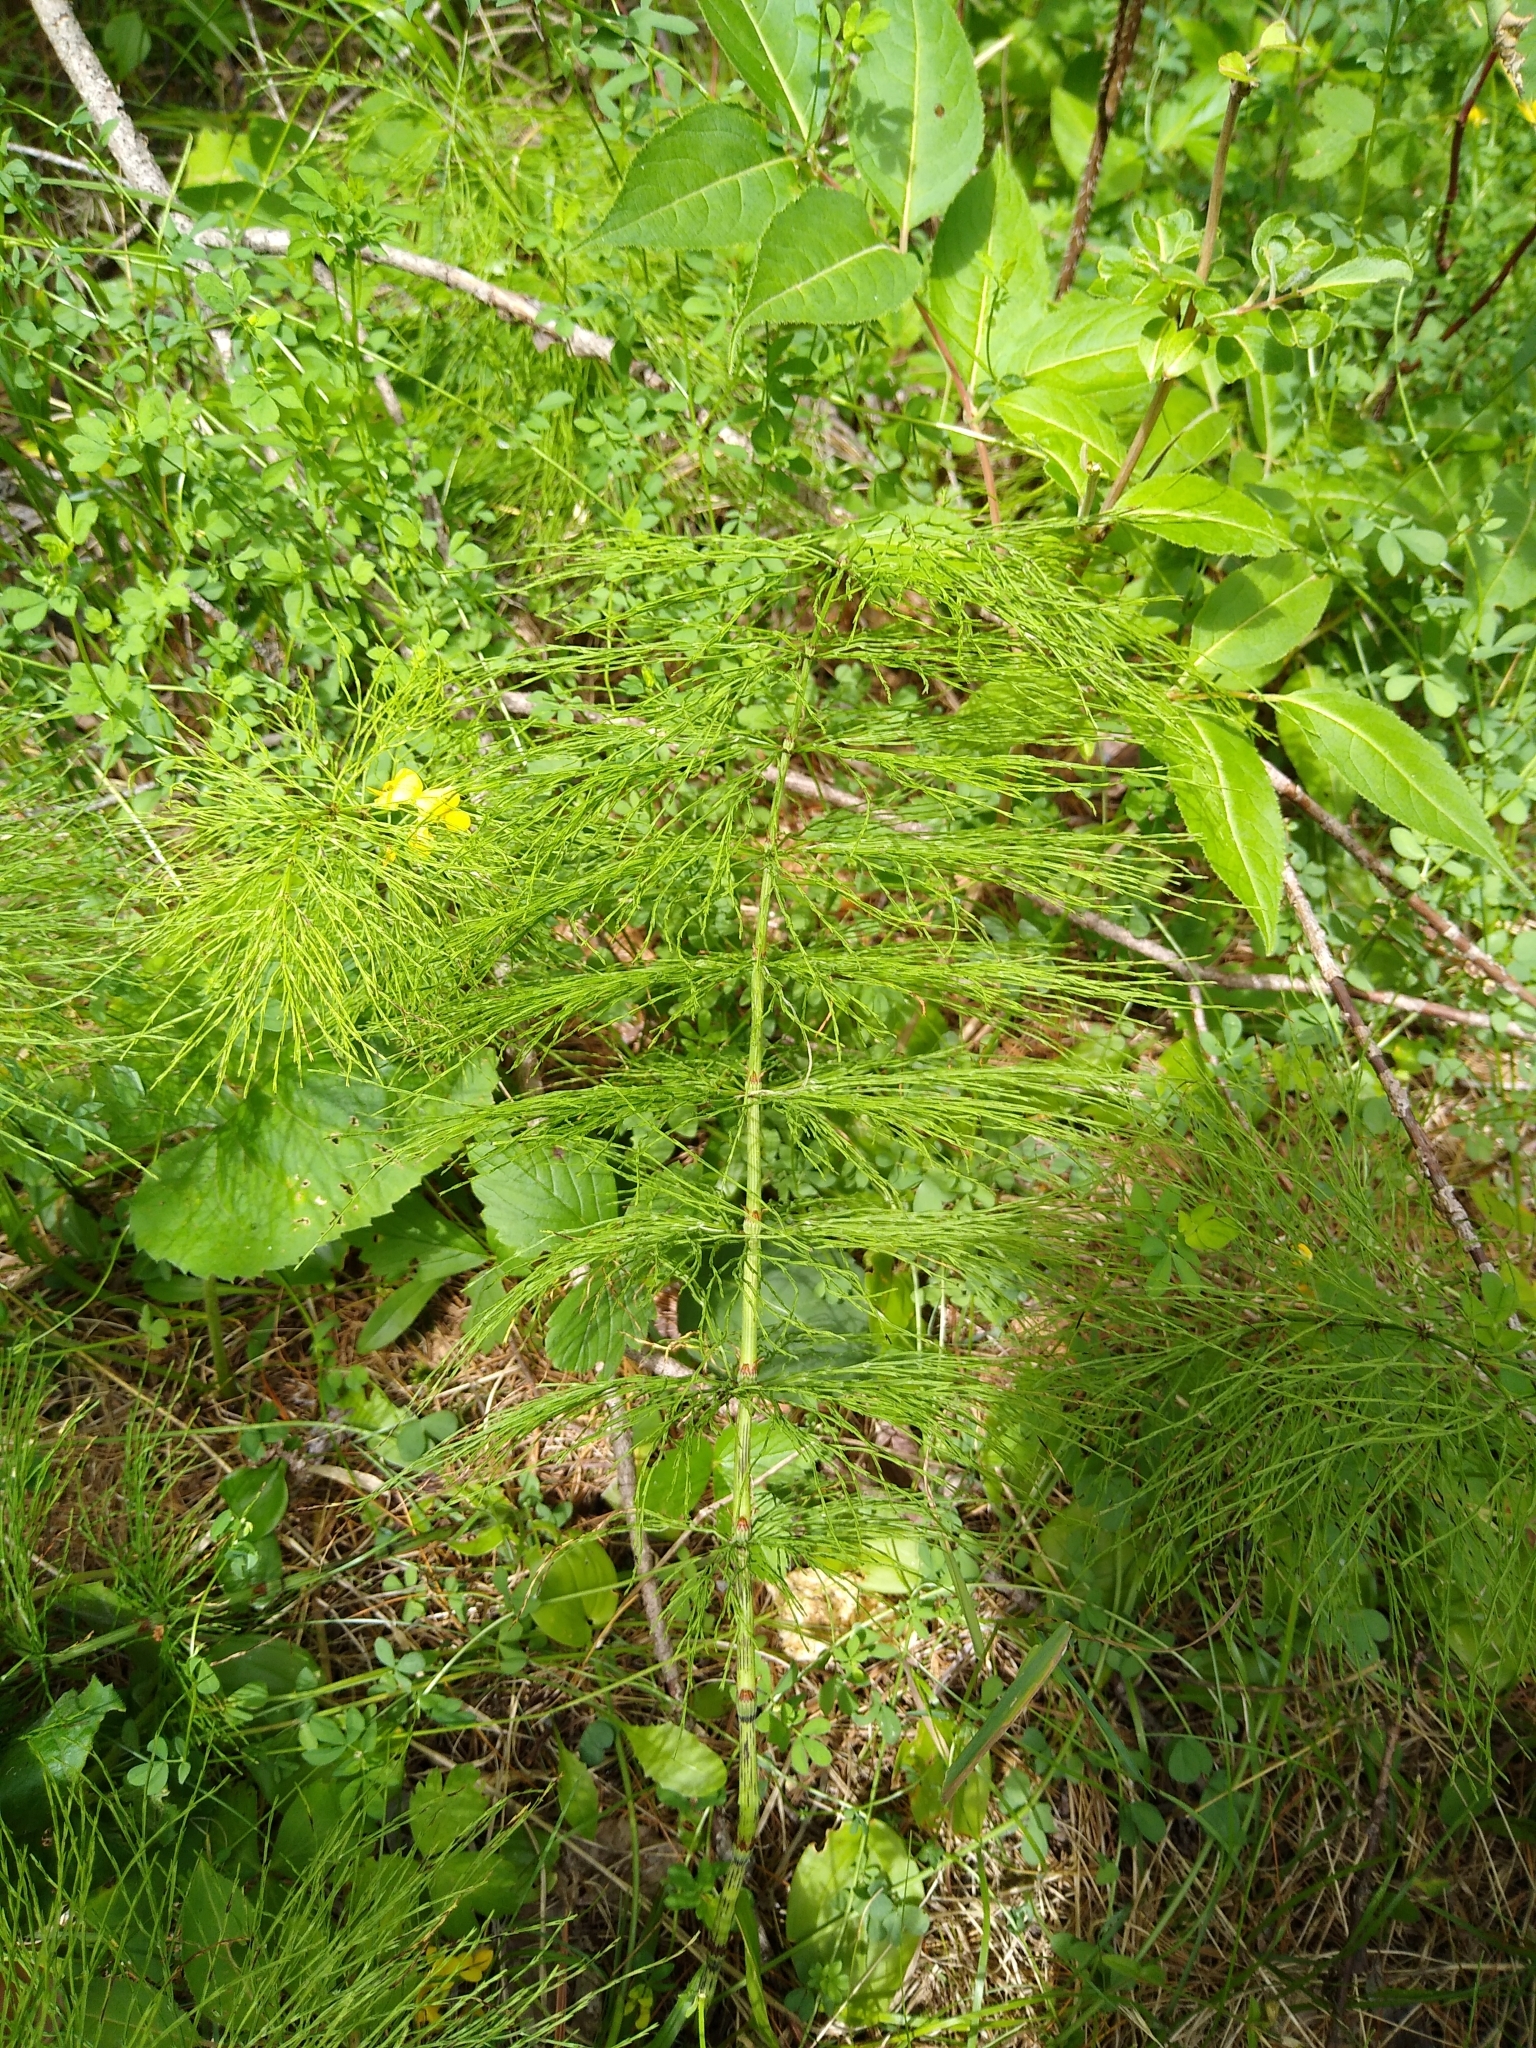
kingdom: Plantae
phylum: Tracheophyta
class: Polypodiopsida
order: Equisetales
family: Equisetaceae
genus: Equisetum
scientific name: Equisetum sylvaticum
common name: Wood horsetail
